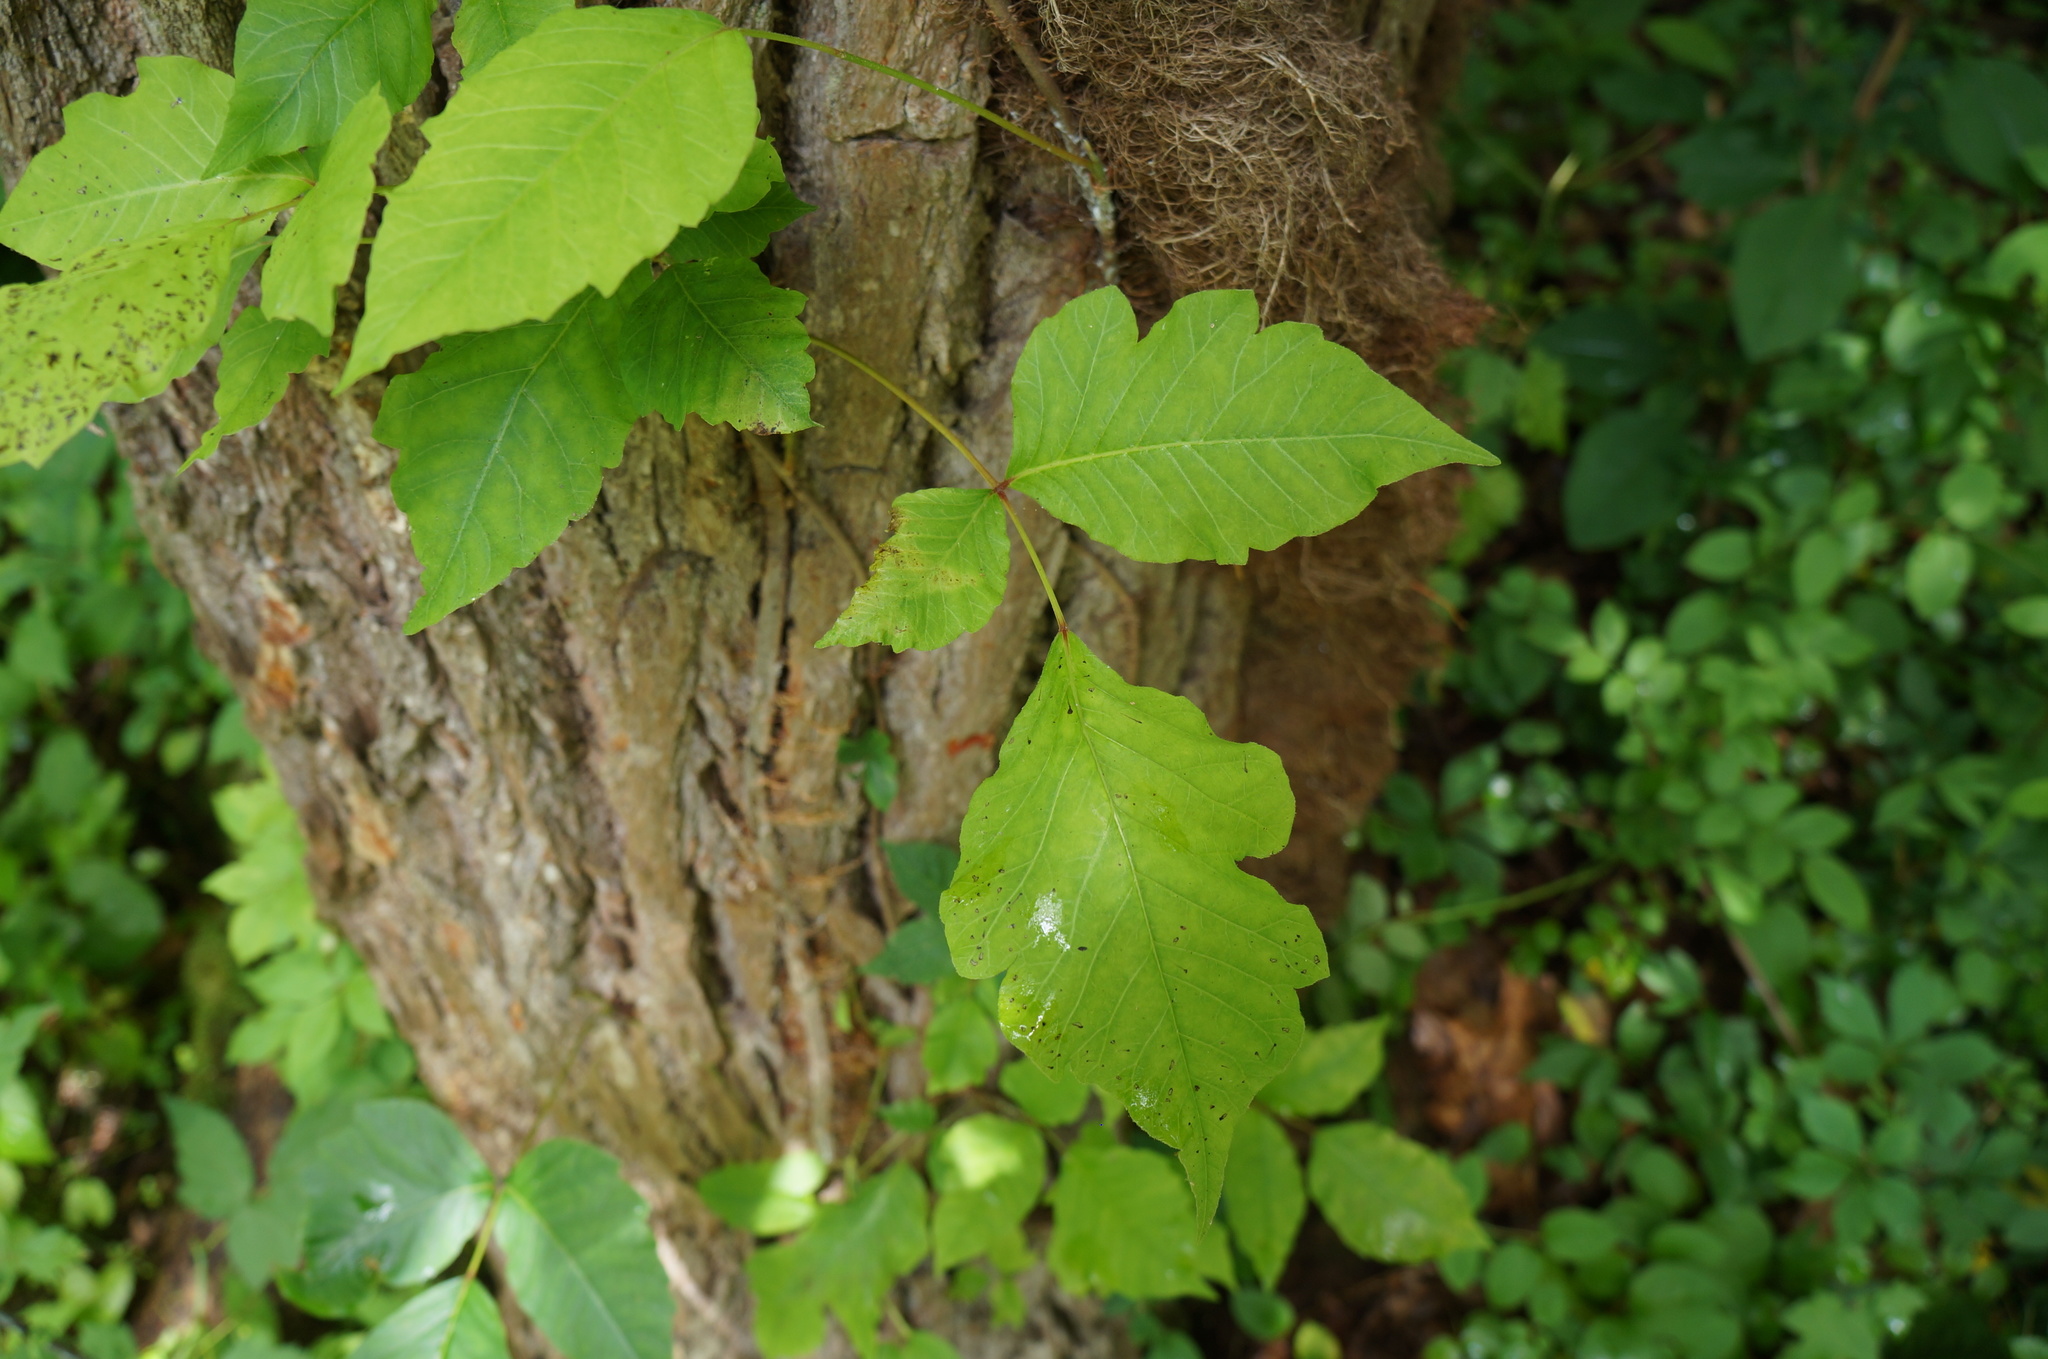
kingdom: Plantae
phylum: Tracheophyta
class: Magnoliopsida
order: Sapindales
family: Anacardiaceae
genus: Toxicodendron
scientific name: Toxicodendron radicans
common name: Poison ivy
